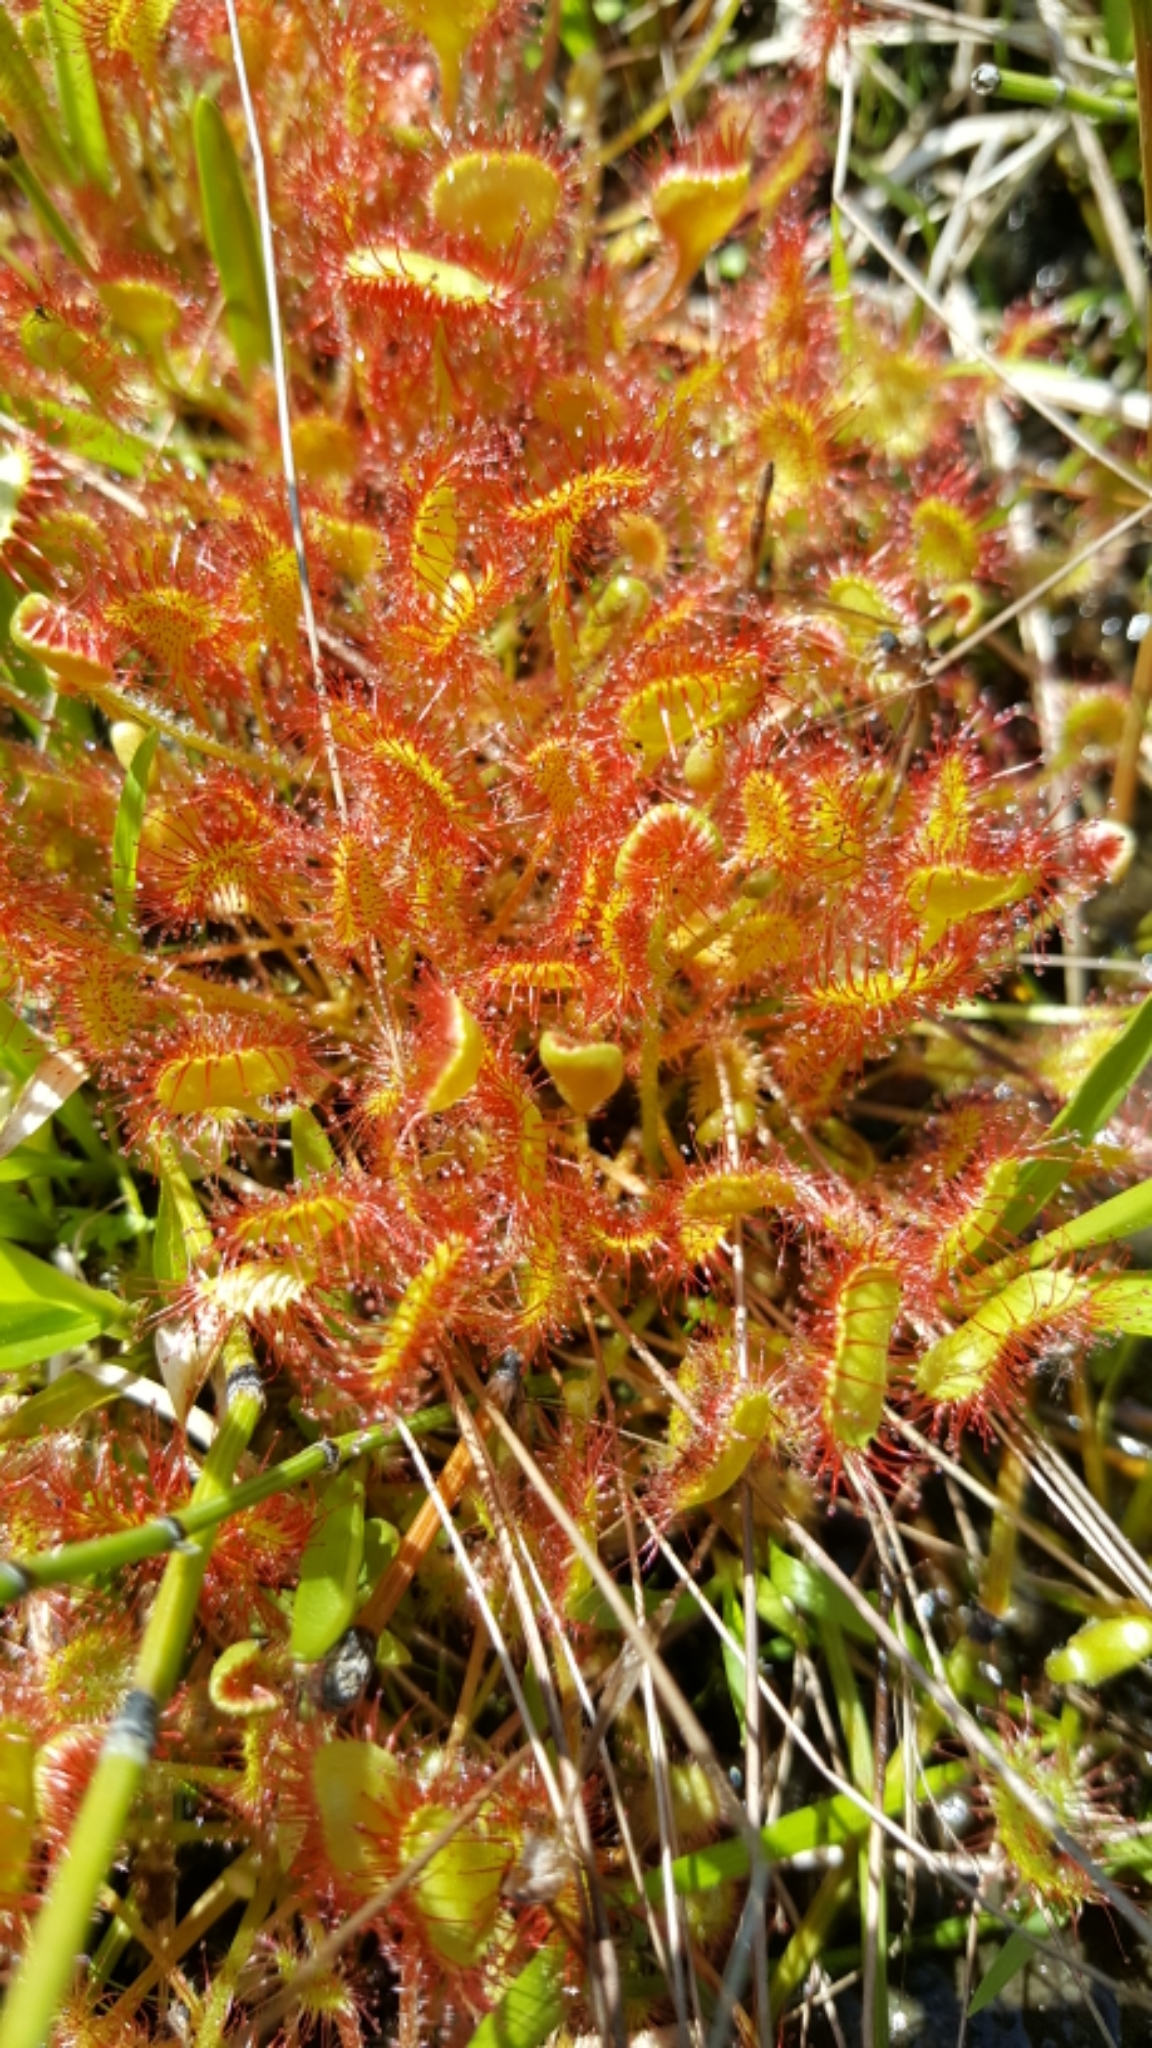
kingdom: Plantae
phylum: Tracheophyta
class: Magnoliopsida
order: Caryophyllales
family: Droseraceae
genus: Drosera
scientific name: Drosera rotundifolia
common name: Round-leaved sundew
